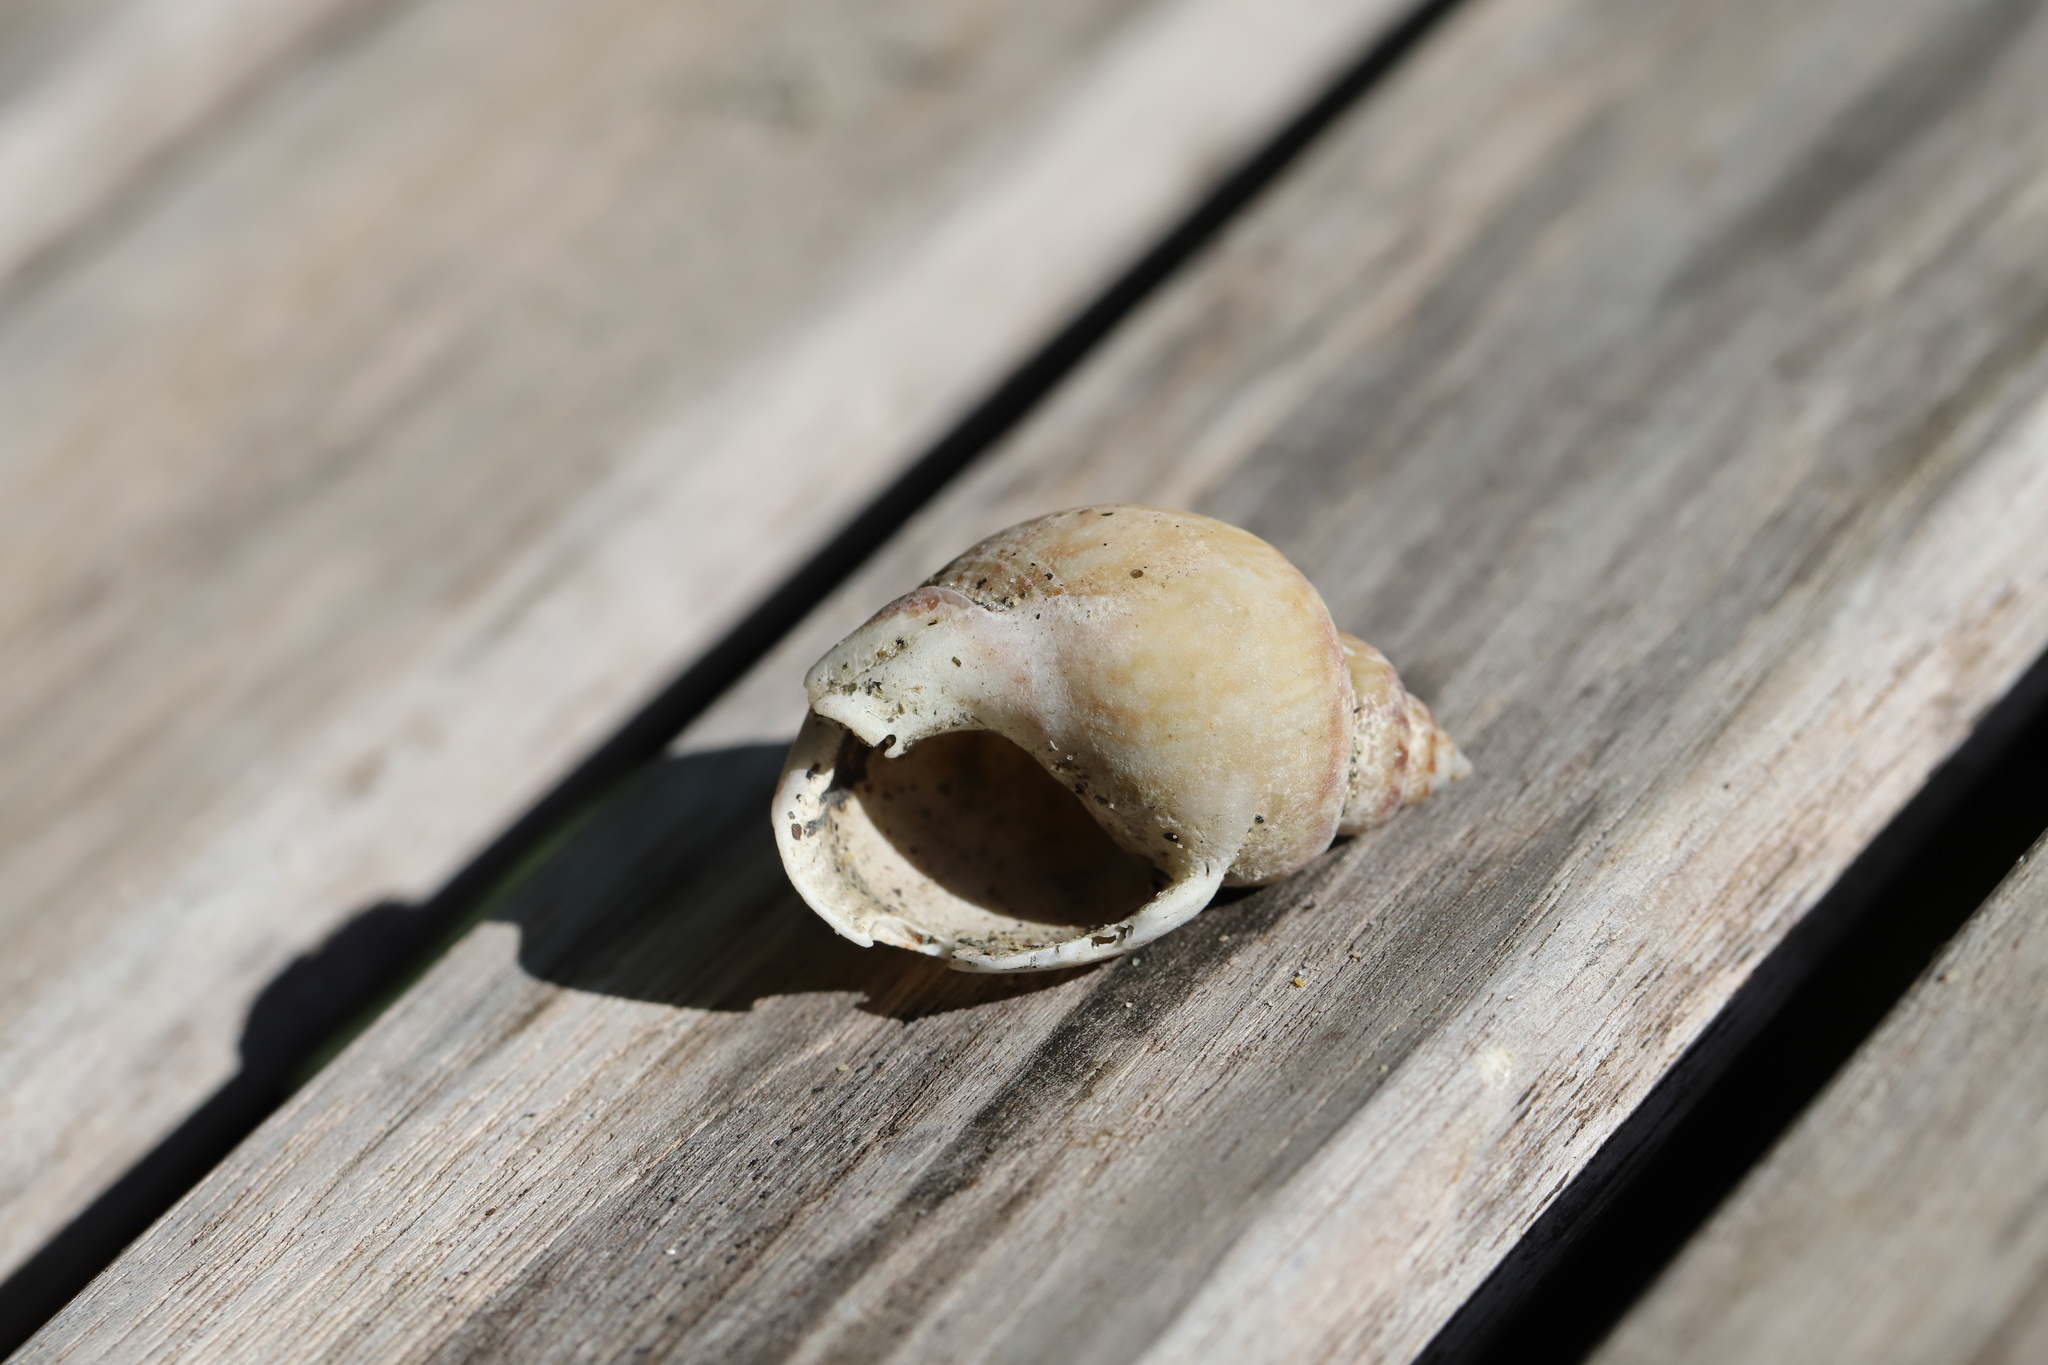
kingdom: Animalia
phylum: Mollusca
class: Gastropoda
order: Neogastropoda
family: Nassariidae
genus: Tritia
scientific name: Tritia mutabilis
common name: Mutable nassa
